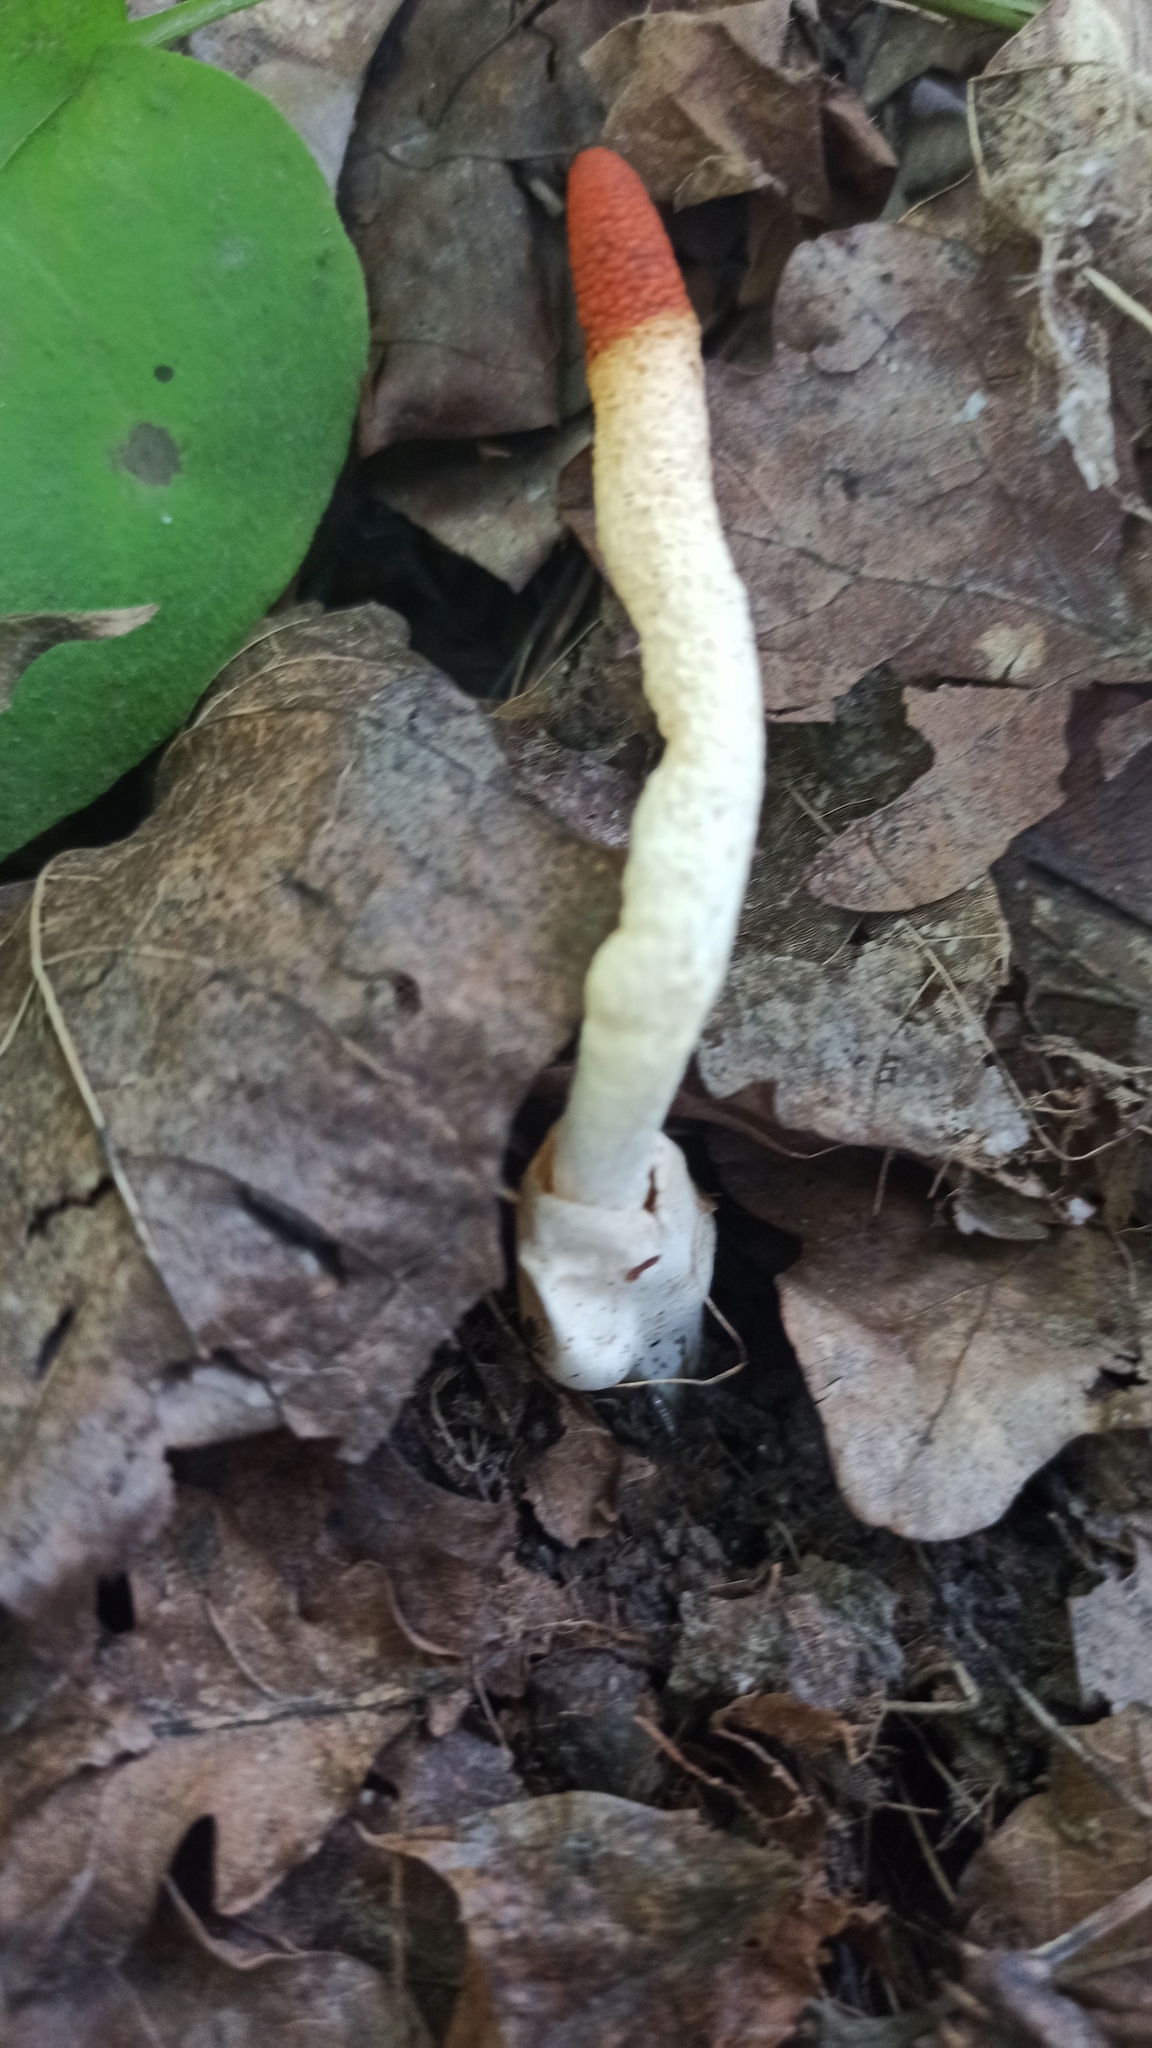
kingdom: Fungi
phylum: Basidiomycota
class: Agaricomycetes
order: Phallales
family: Phallaceae
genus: Mutinus
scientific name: Mutinus caninus
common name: Dog stinkhorn
